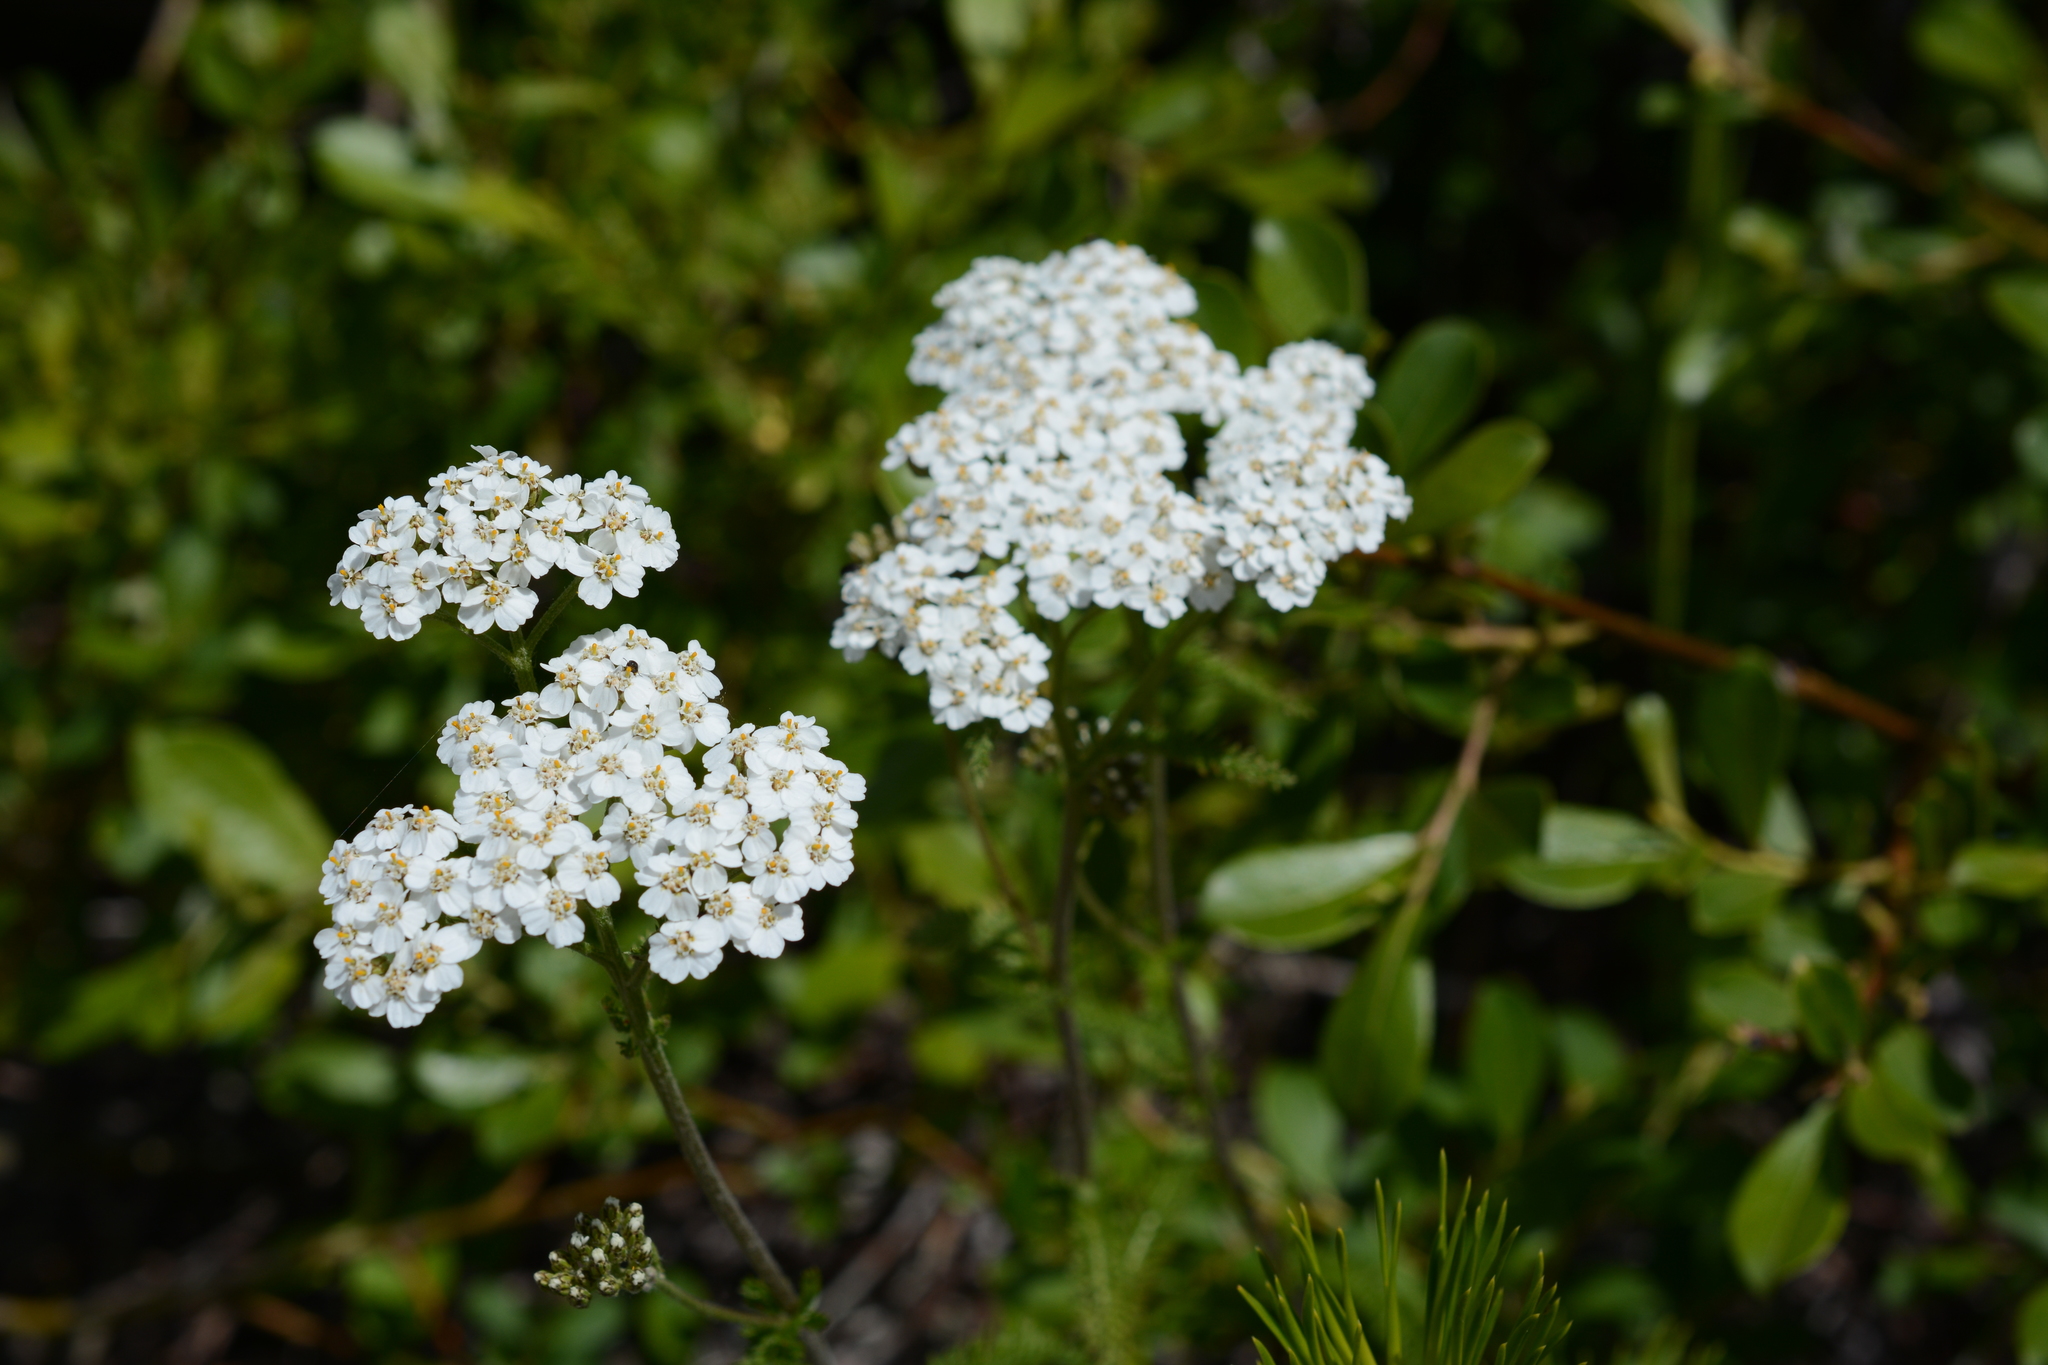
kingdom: Plantae
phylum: Tracheophyta
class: Magnoliopsida
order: Asterales
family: Asteraceae
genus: Achillea
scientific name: Achillea millefolium
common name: Yarrow
